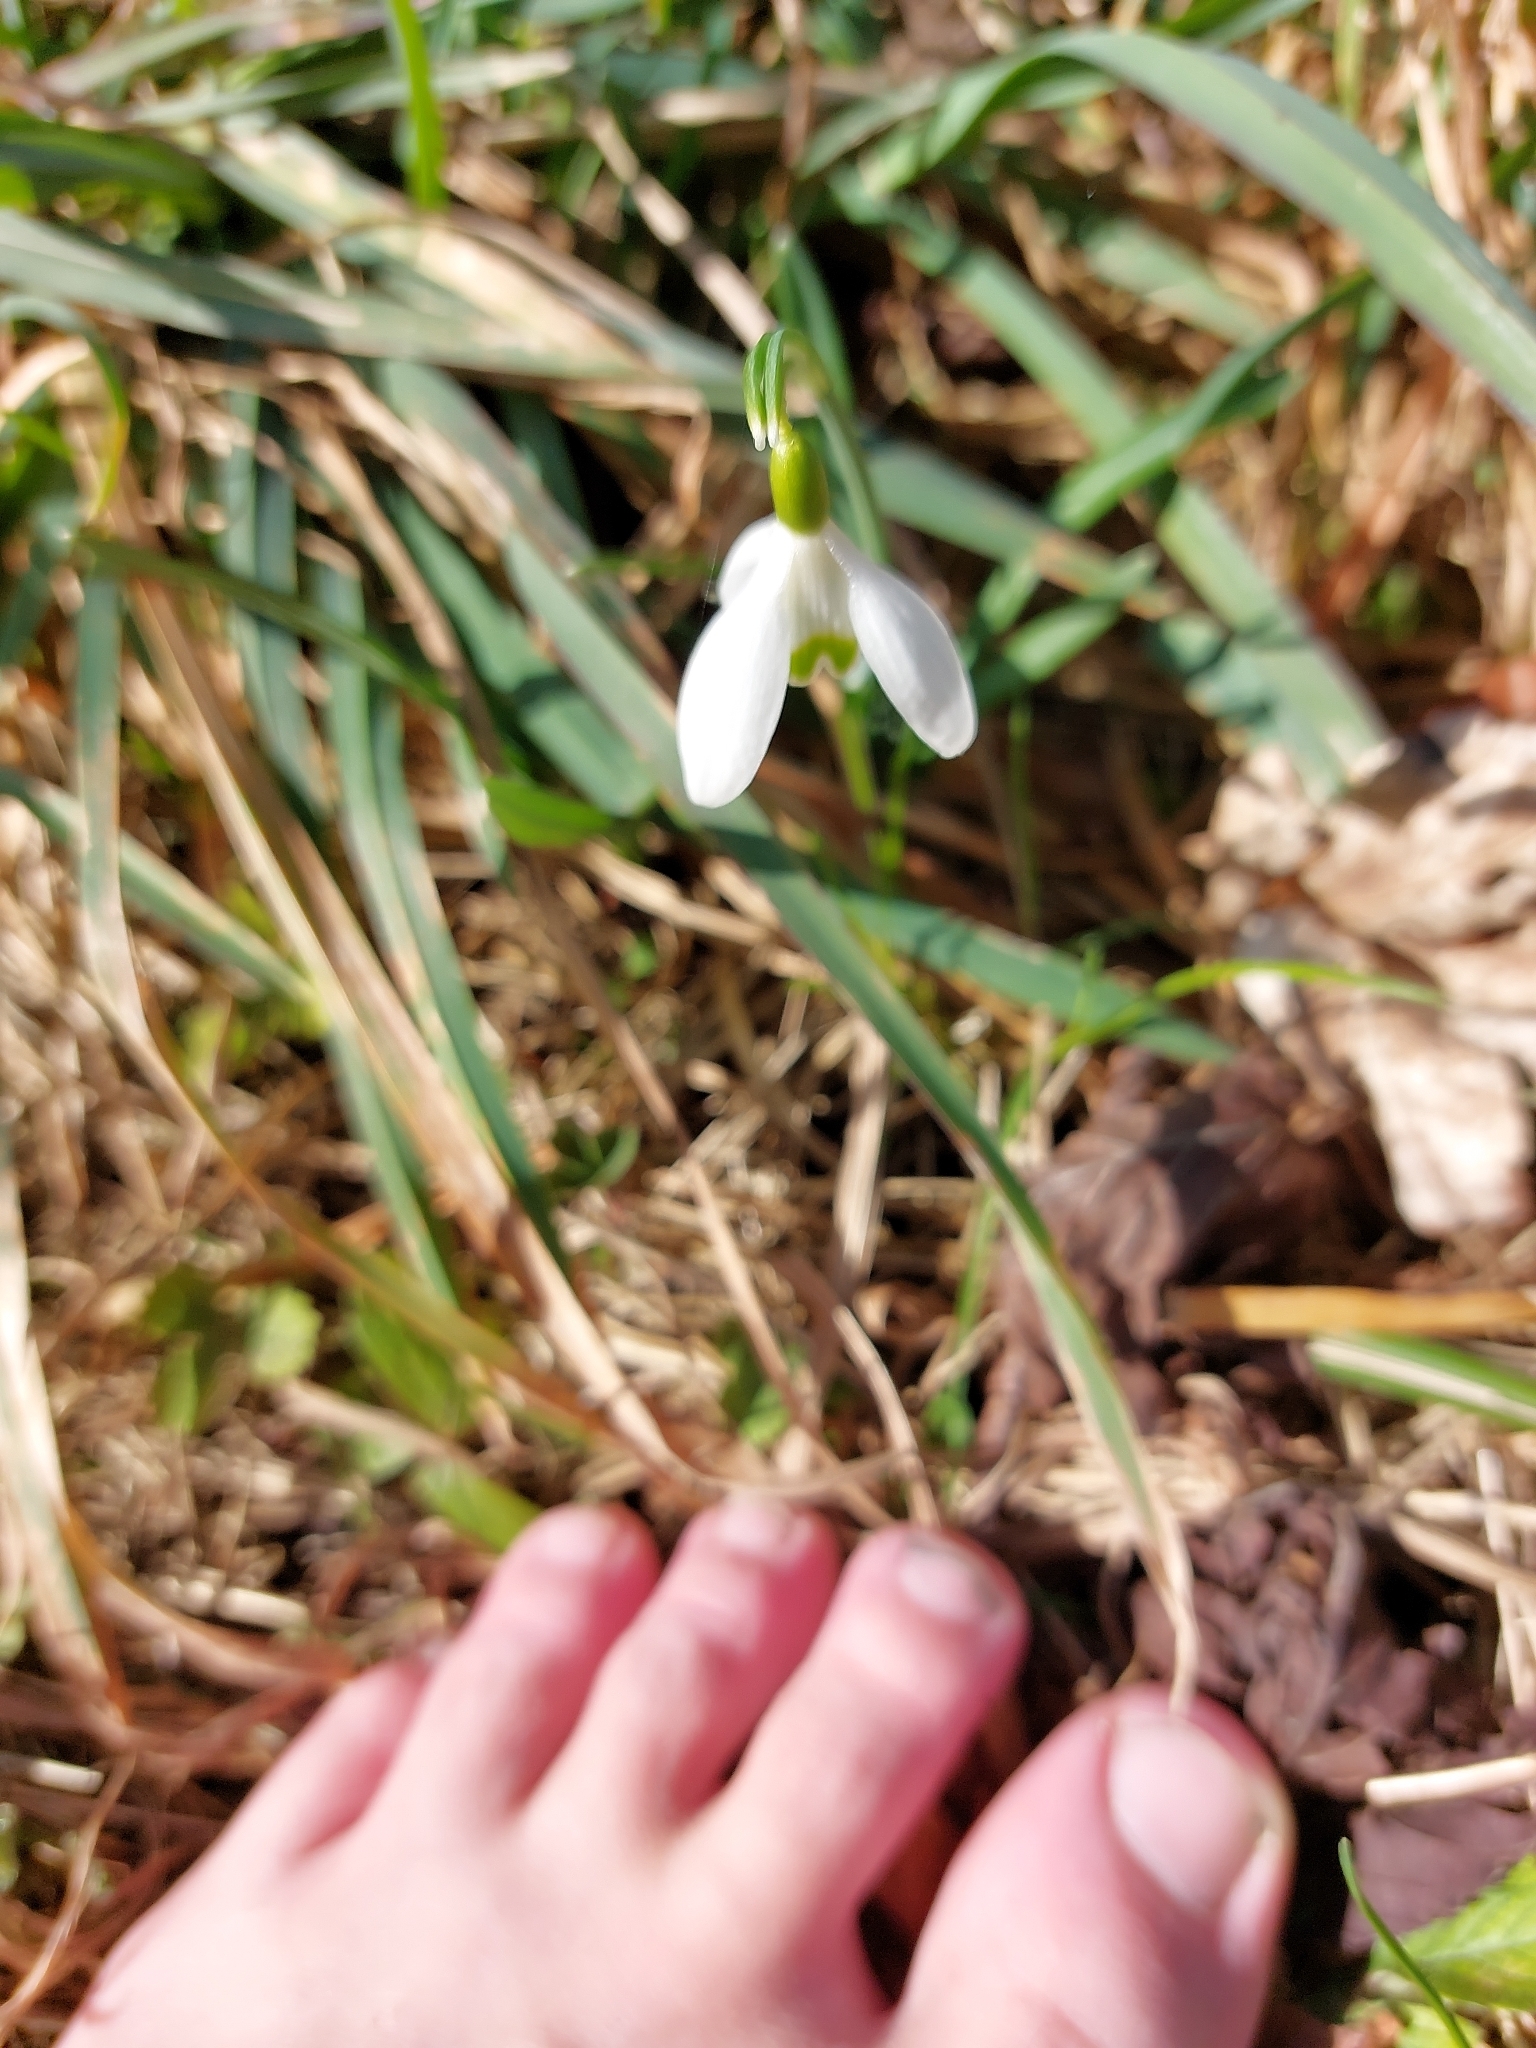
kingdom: Plantae
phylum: Tracheophyta
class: Liliopsida
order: Asparagales
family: Amaryllidaceae
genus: Galanthus
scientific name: Galanthus nivalis
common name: Snowdrop
